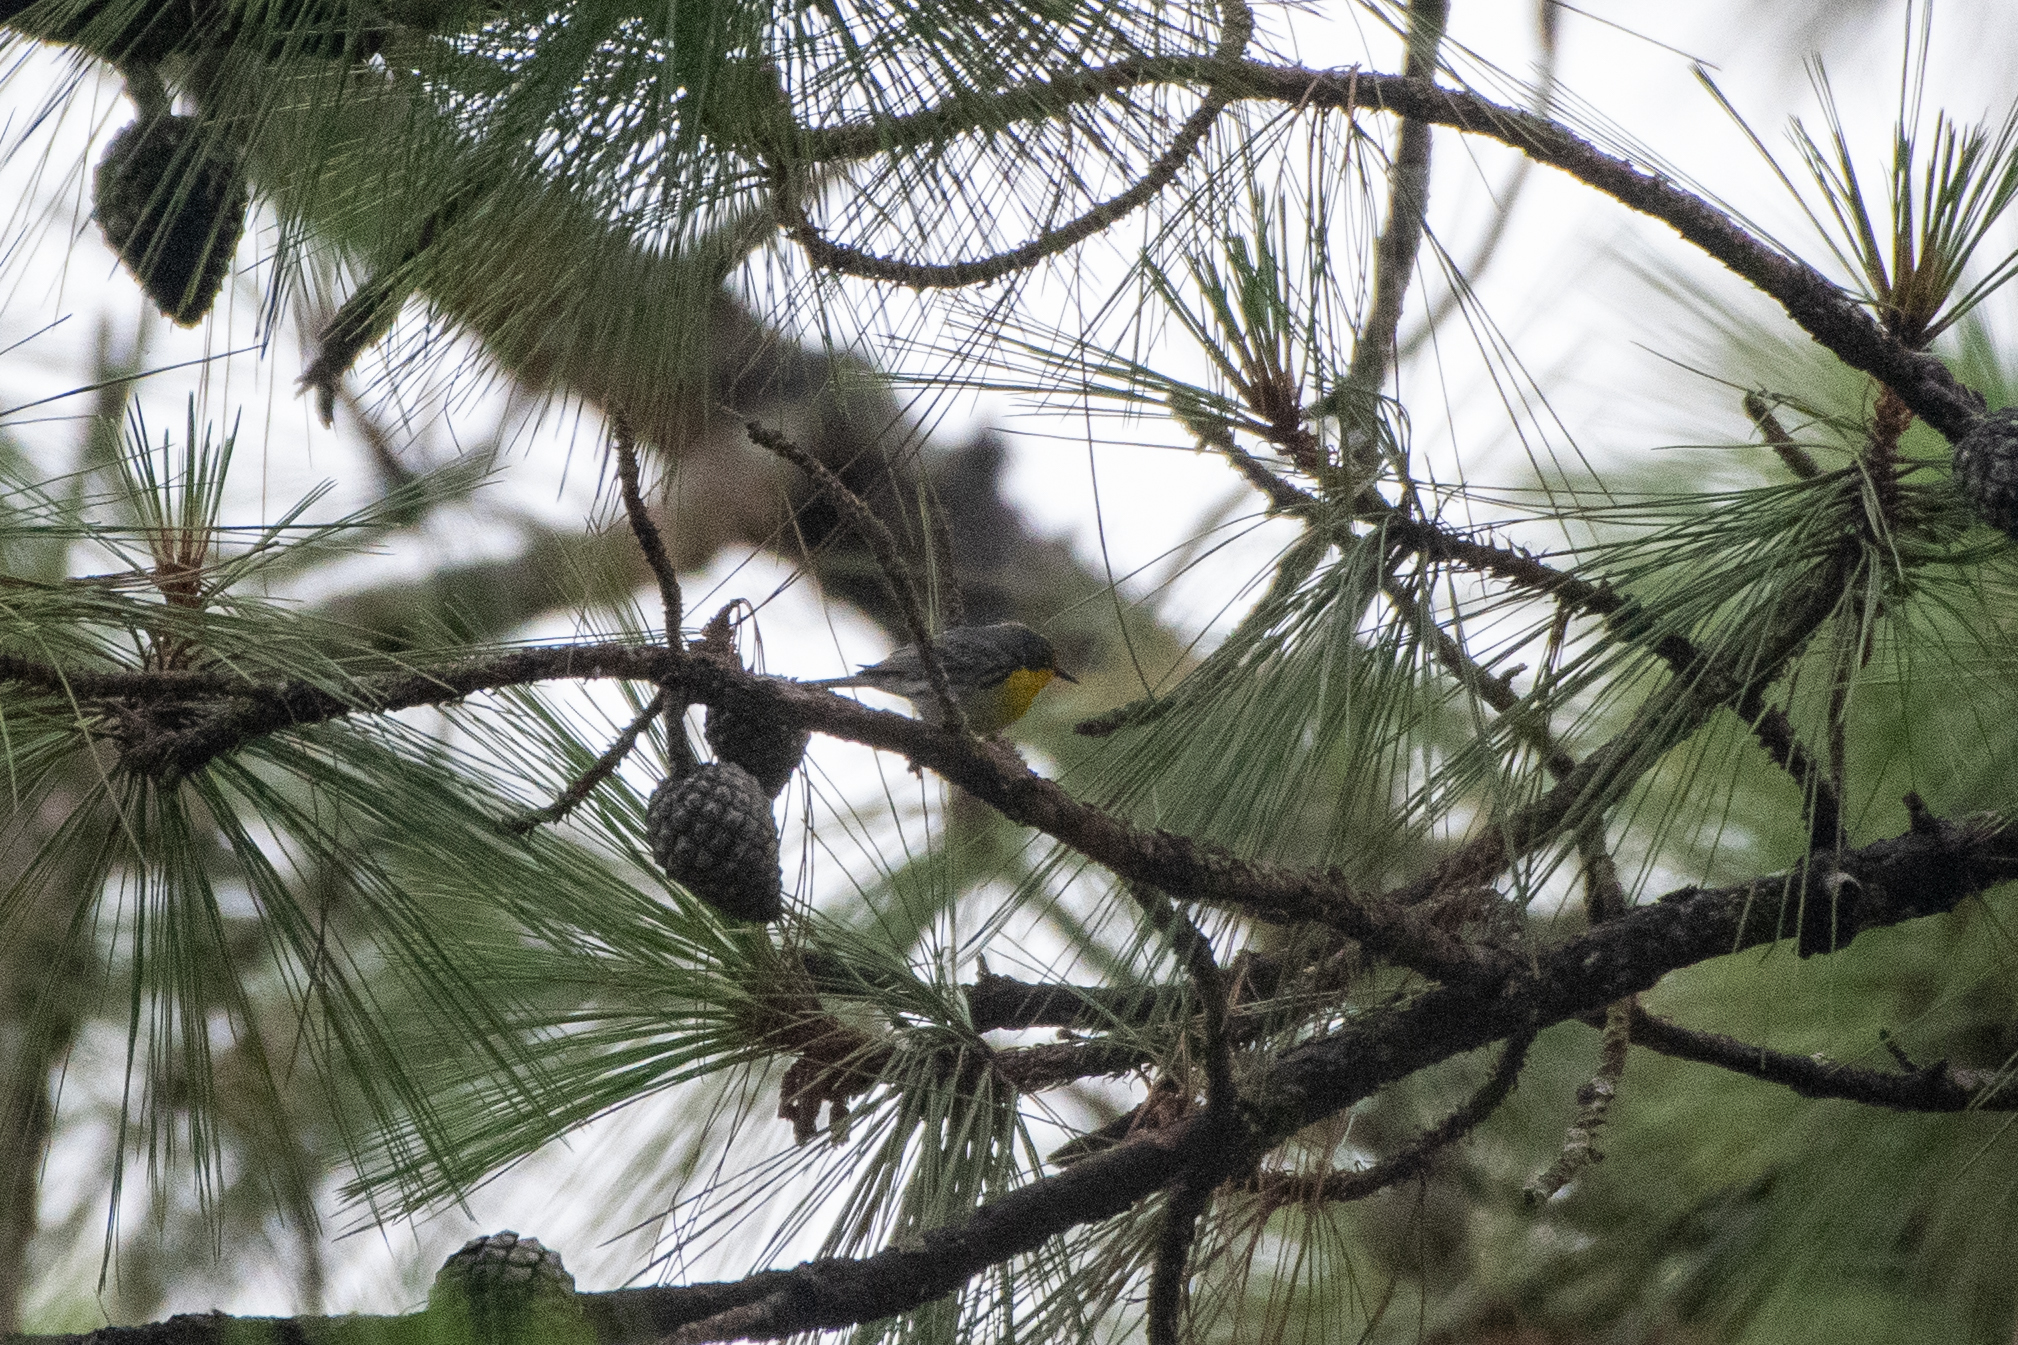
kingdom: Animalia
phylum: Chordata
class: Aves
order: Passeriformes
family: Parulidae
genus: Setophaga
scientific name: Setophaga graciae
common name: Grace's warbler
